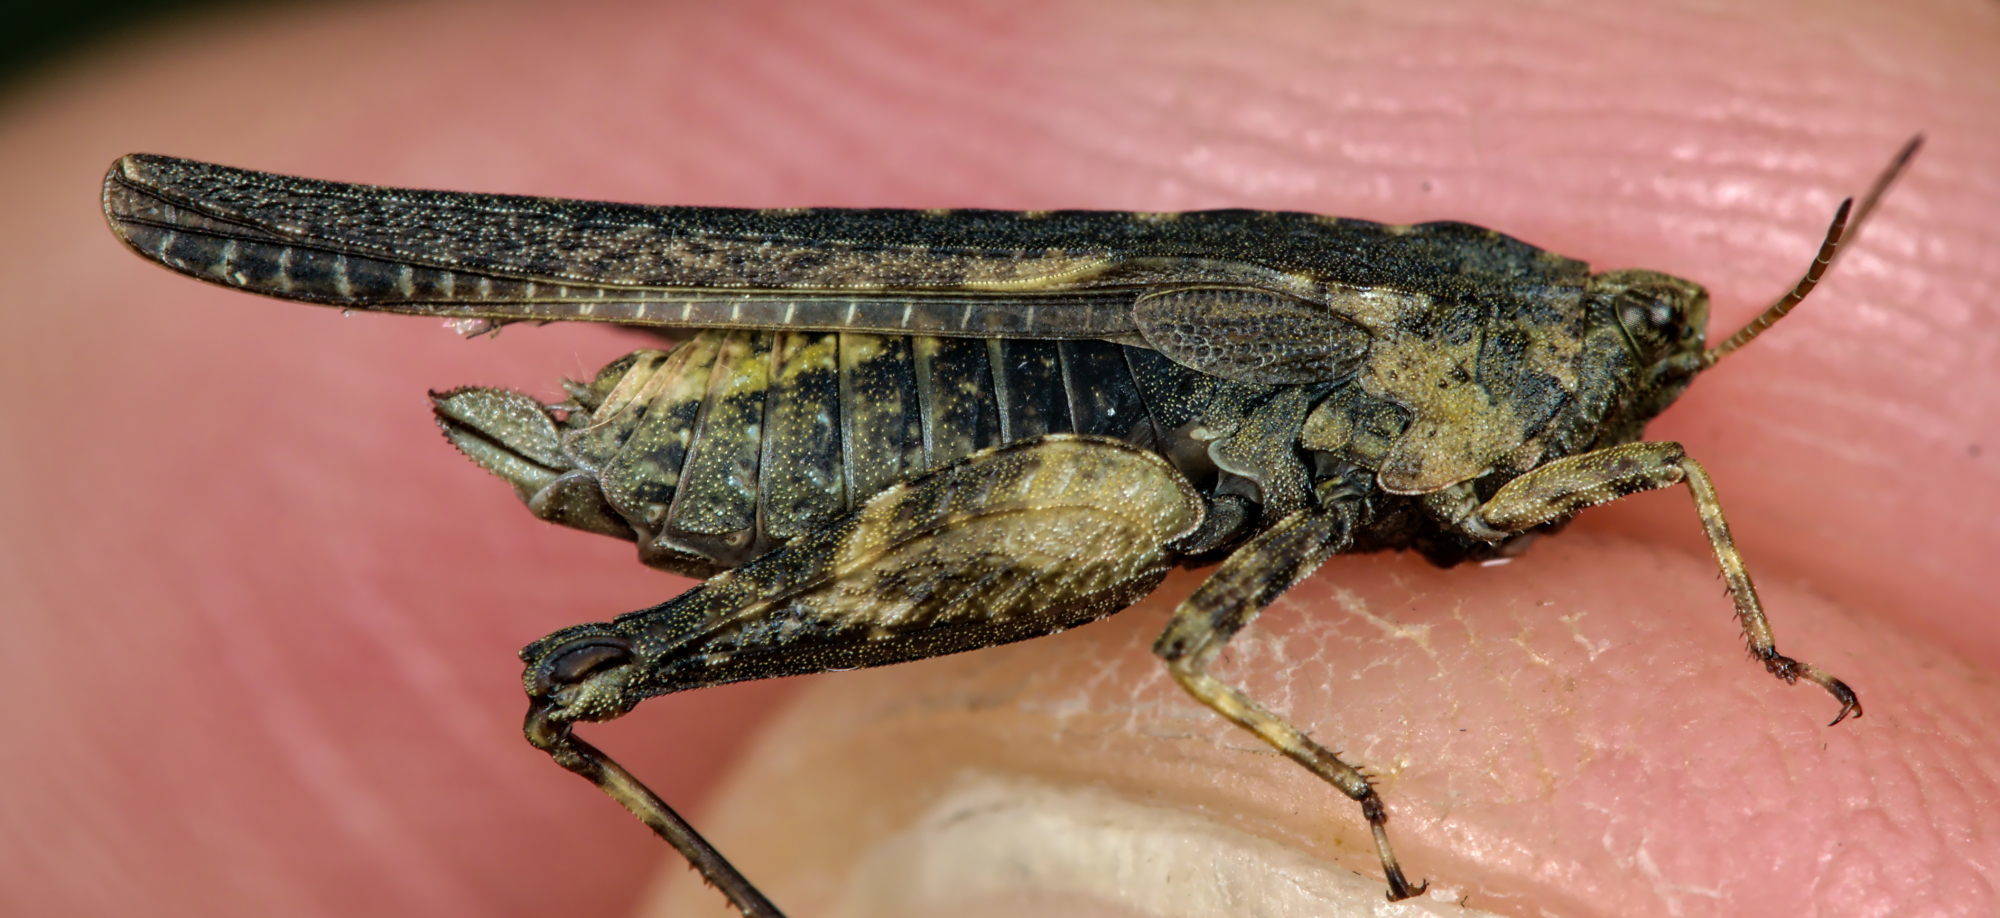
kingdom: Animalia
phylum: Arthropoda
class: Insecta
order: Orthoptera
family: Tetrigidae
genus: Tetrix
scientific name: Tetrix subulata
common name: Slender ground-hopper
